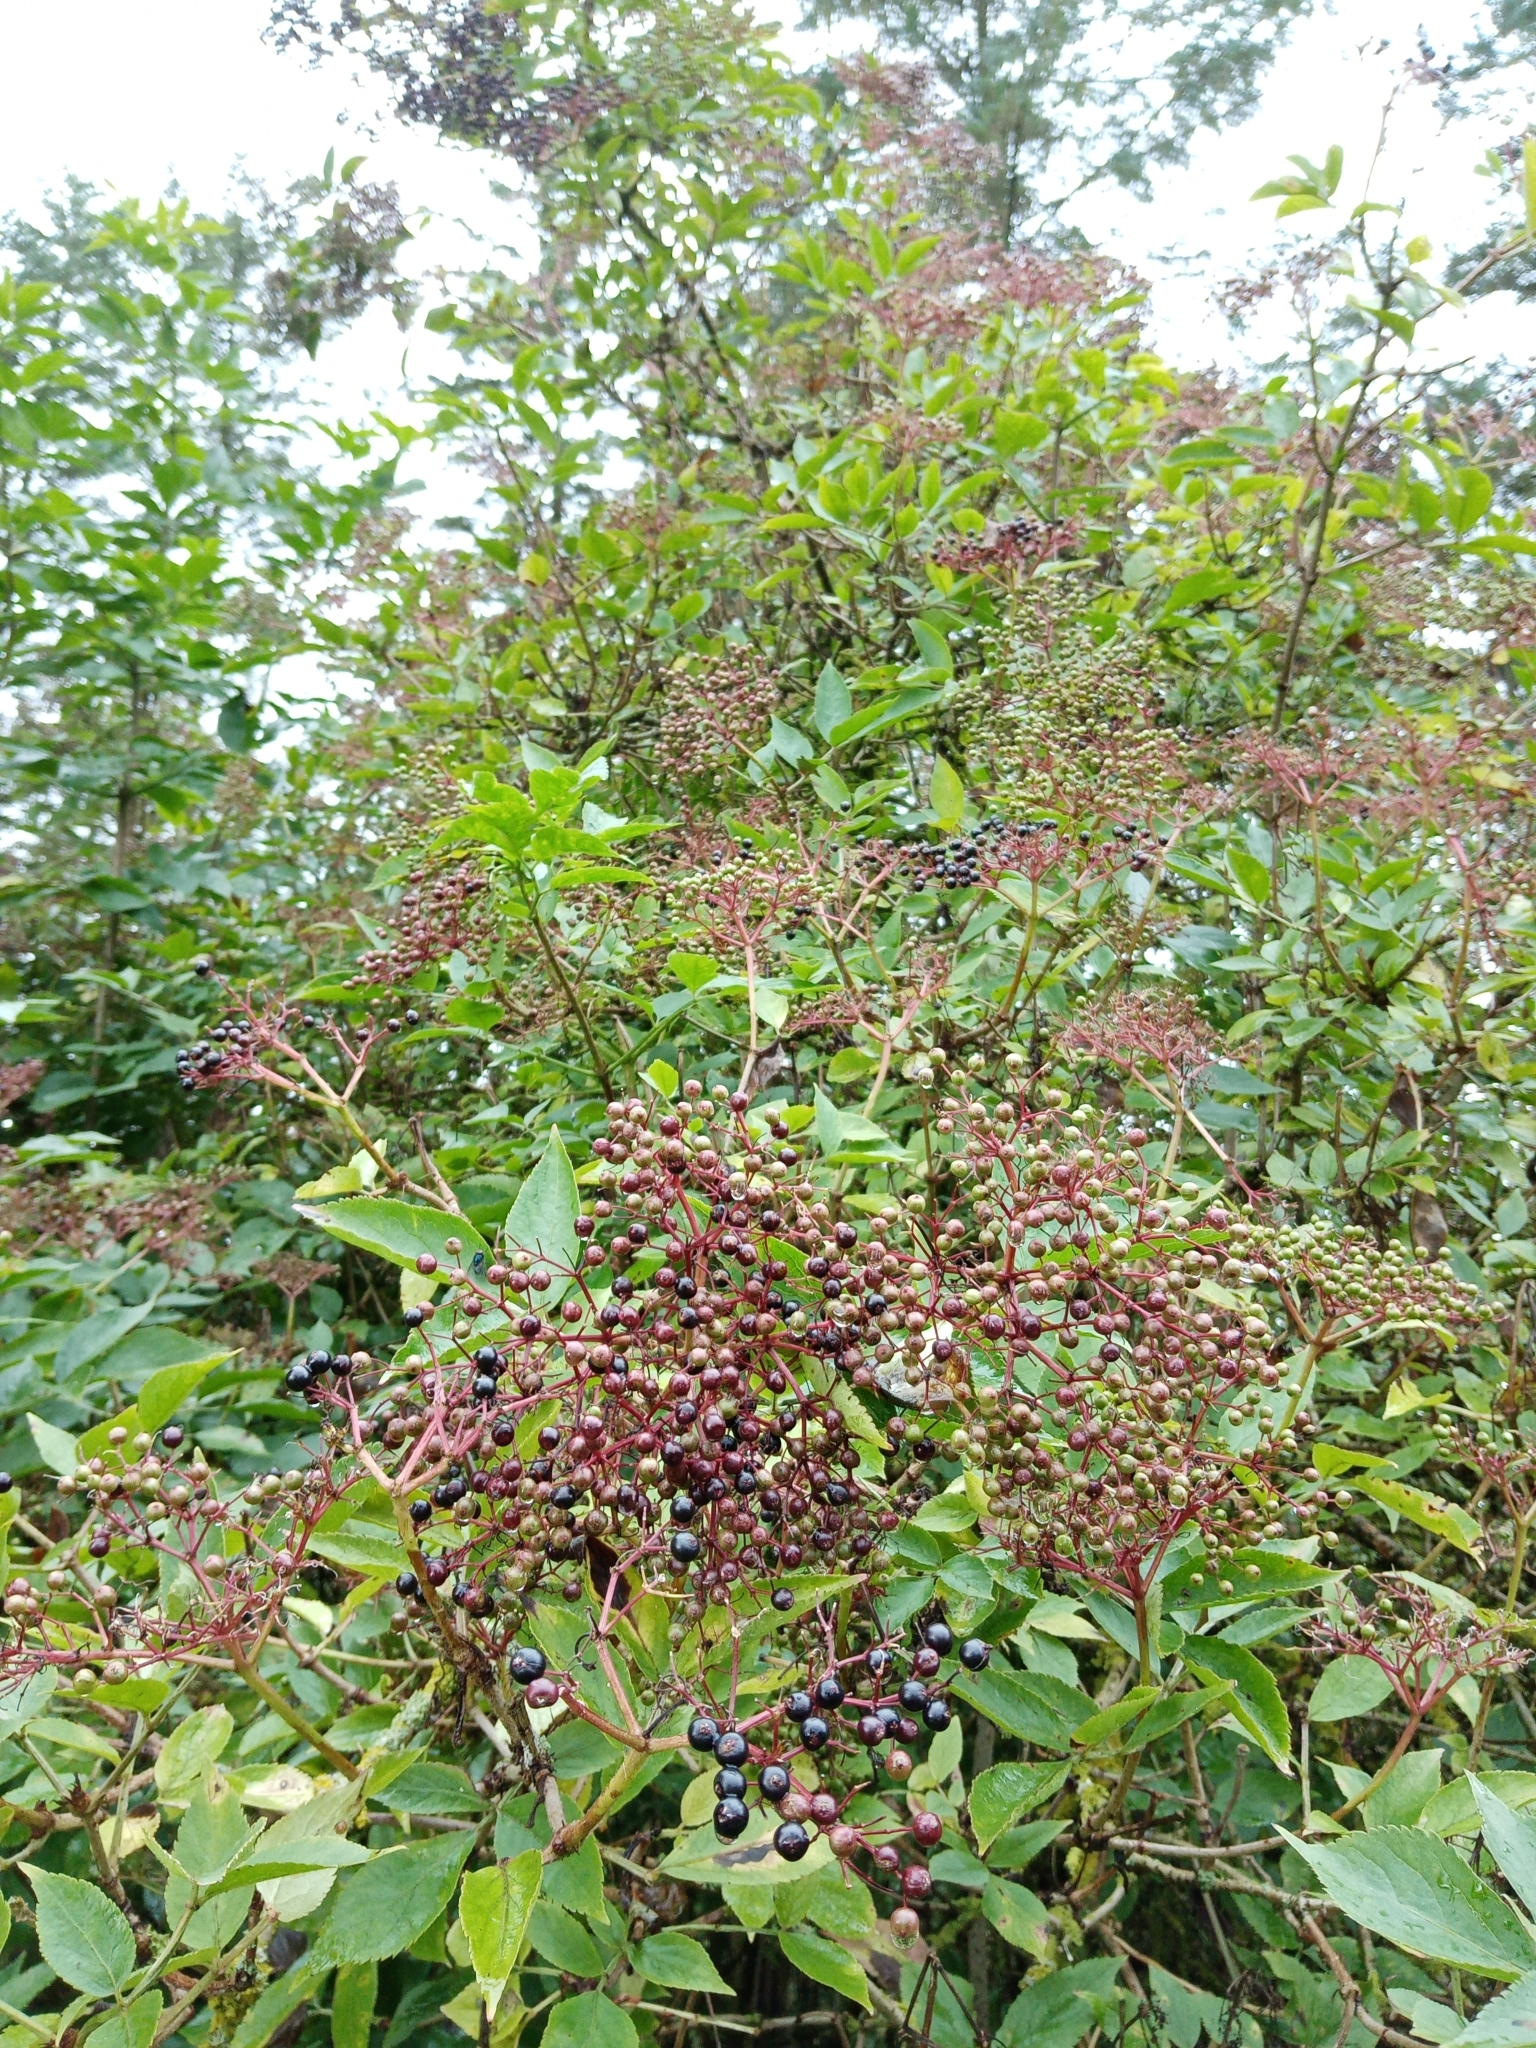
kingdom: Plantae
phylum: Tracheophyta
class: Magnoliopsida
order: Dipsacales
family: Viburnaceae
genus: Sambucus
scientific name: Sambucus nigra
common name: Elder
